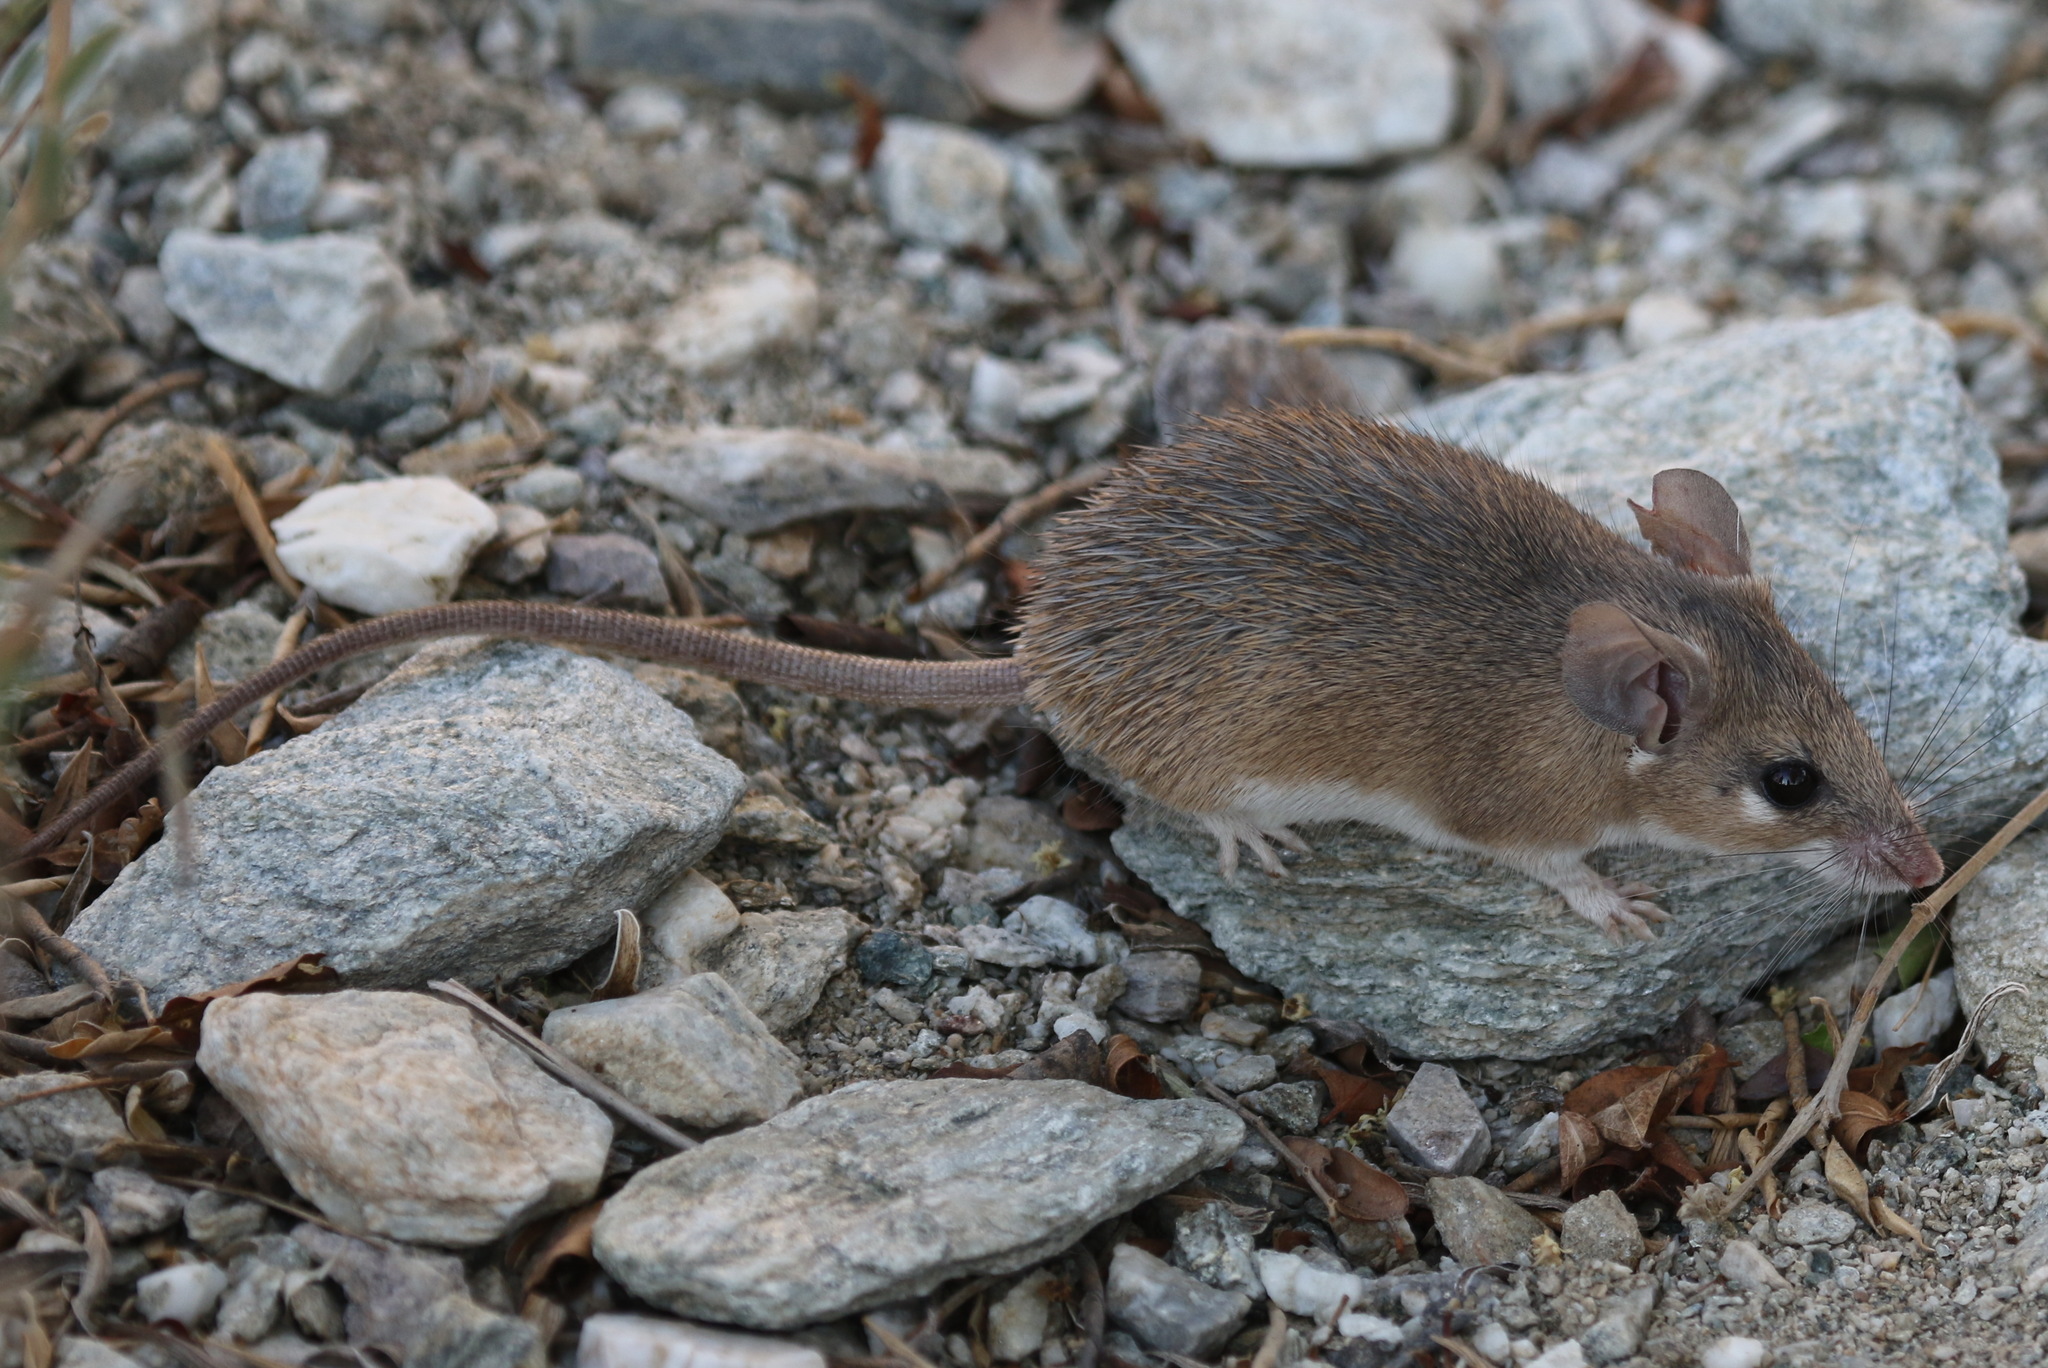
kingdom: Animalia
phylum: Chordata
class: Mammalia
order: Rodentia
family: Muridae
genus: Acomys
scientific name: Acomys dimidiatus
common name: Eastern spiny mouse
